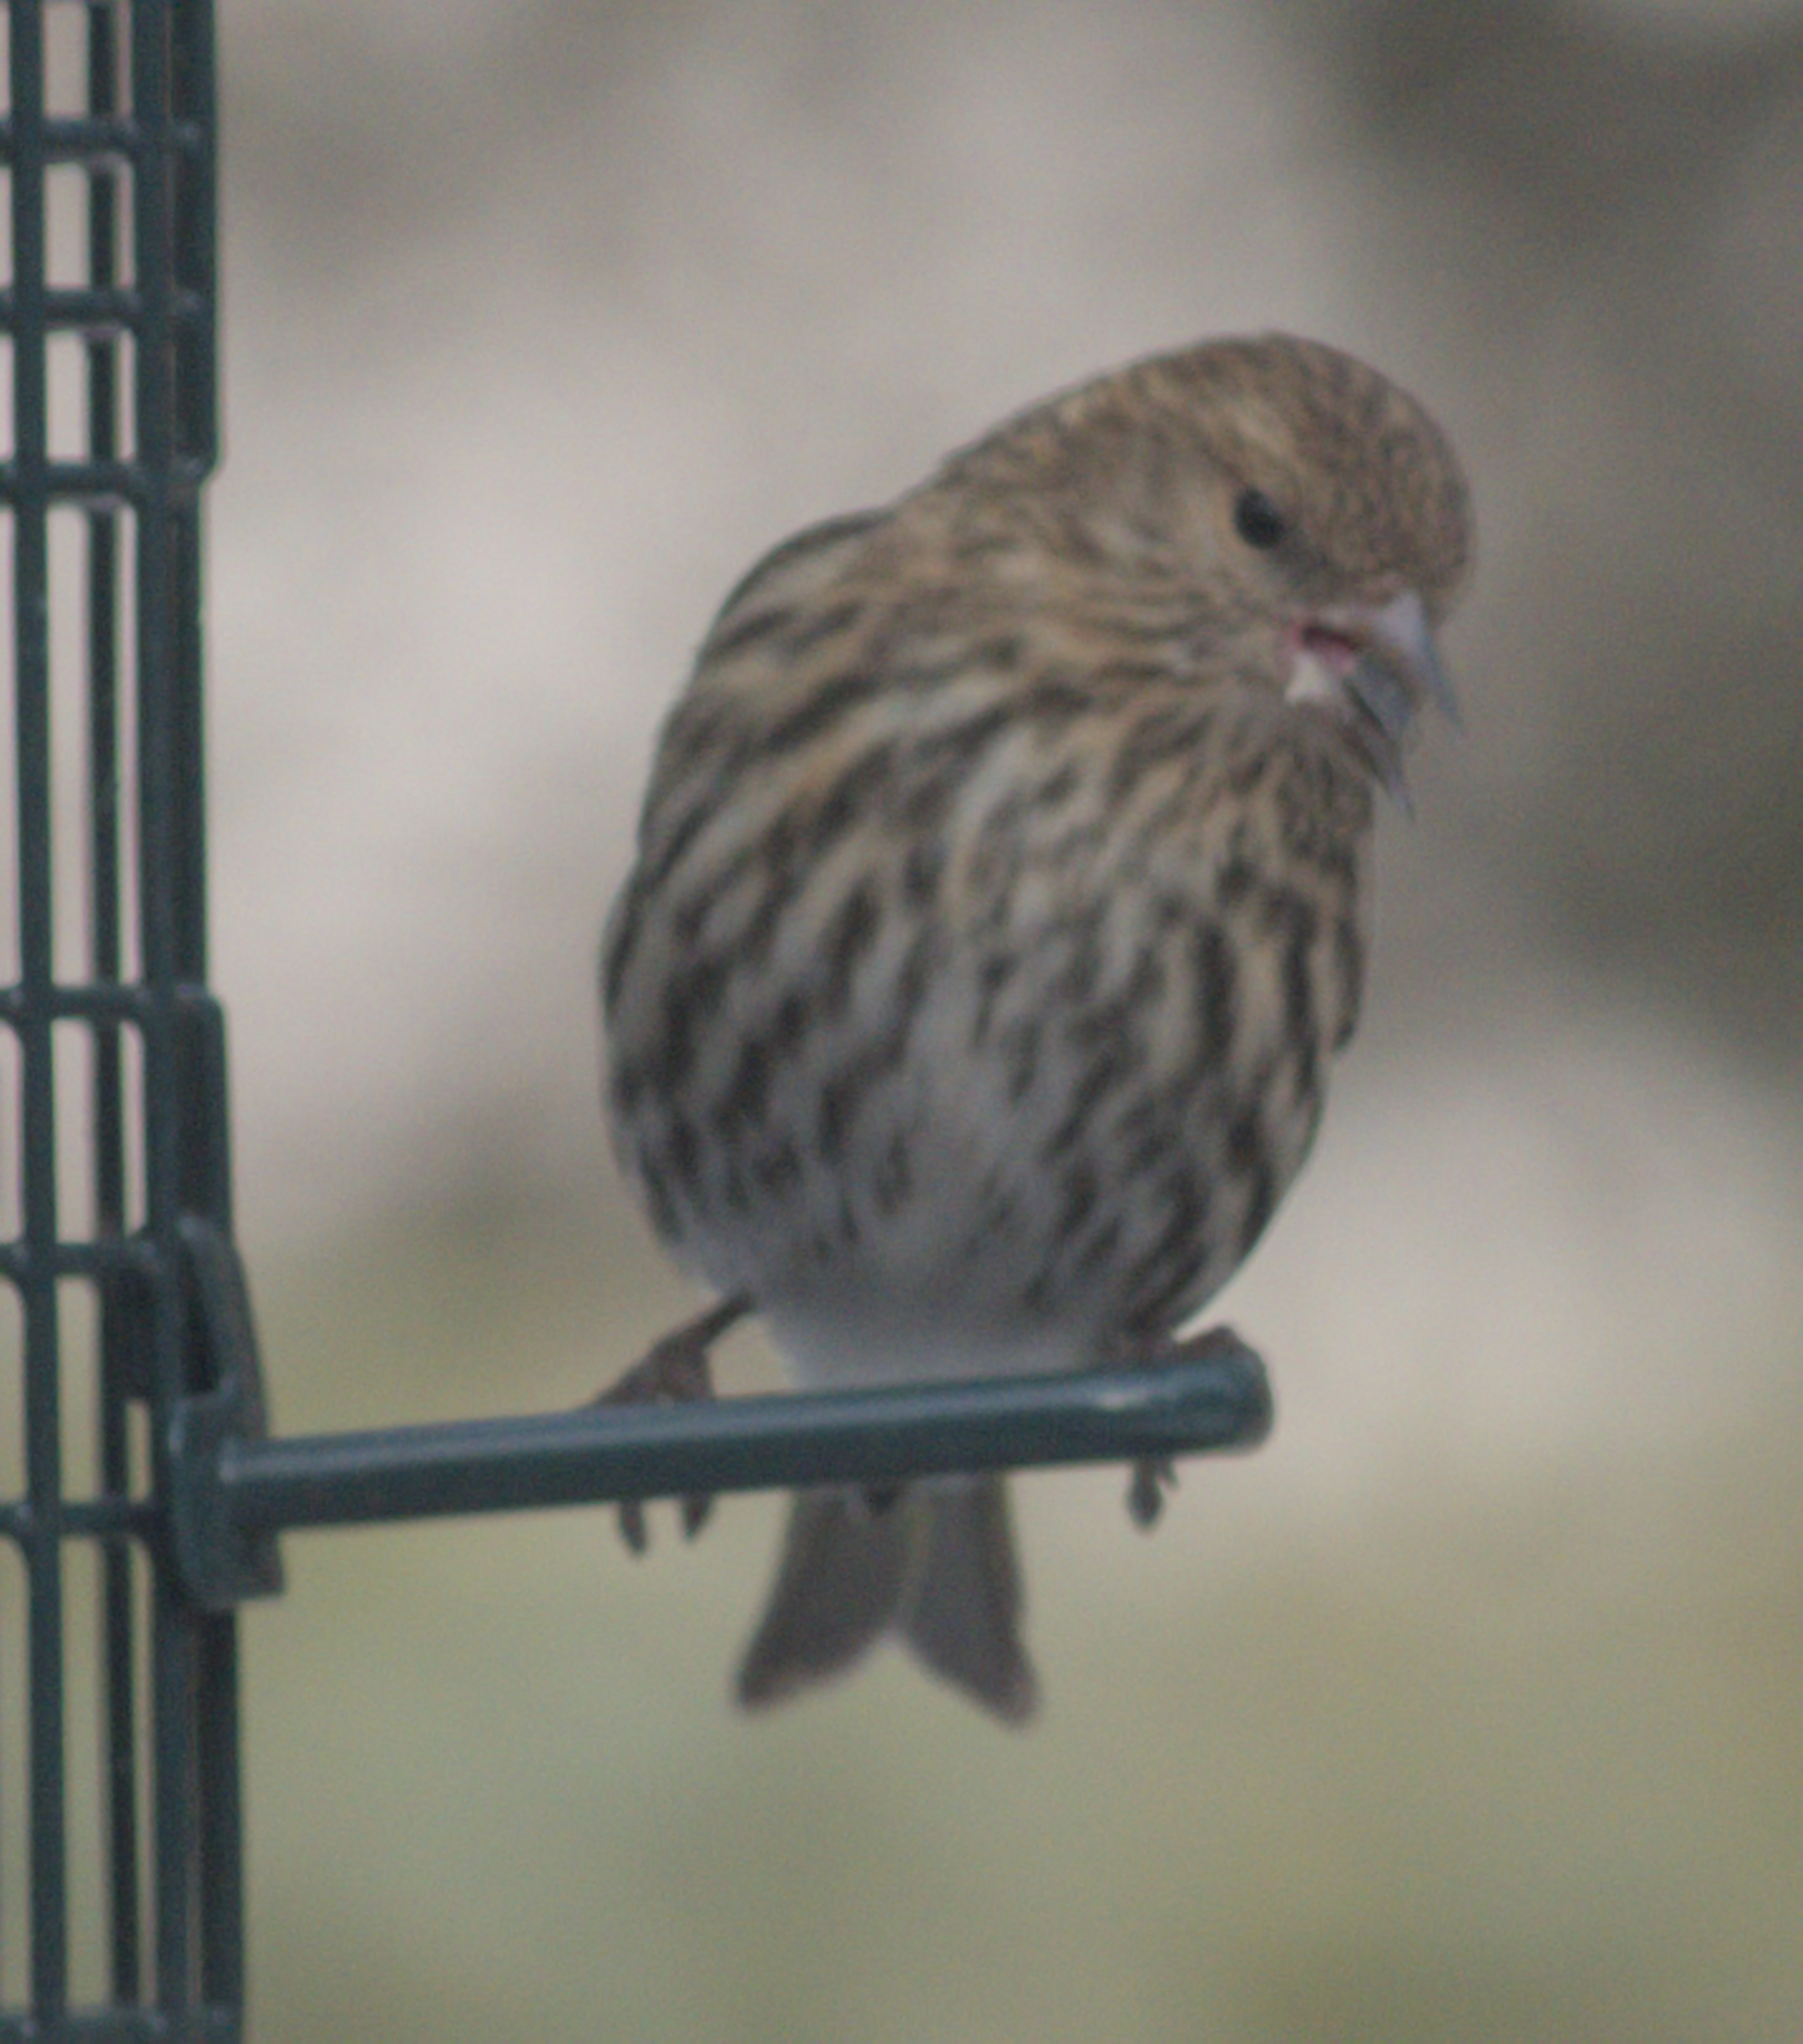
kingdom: Animalia
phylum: Chordata
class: Aves
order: Passeriformes
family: Fringillidae
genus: Spinus
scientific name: Spinus pinus
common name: Pine siskin
